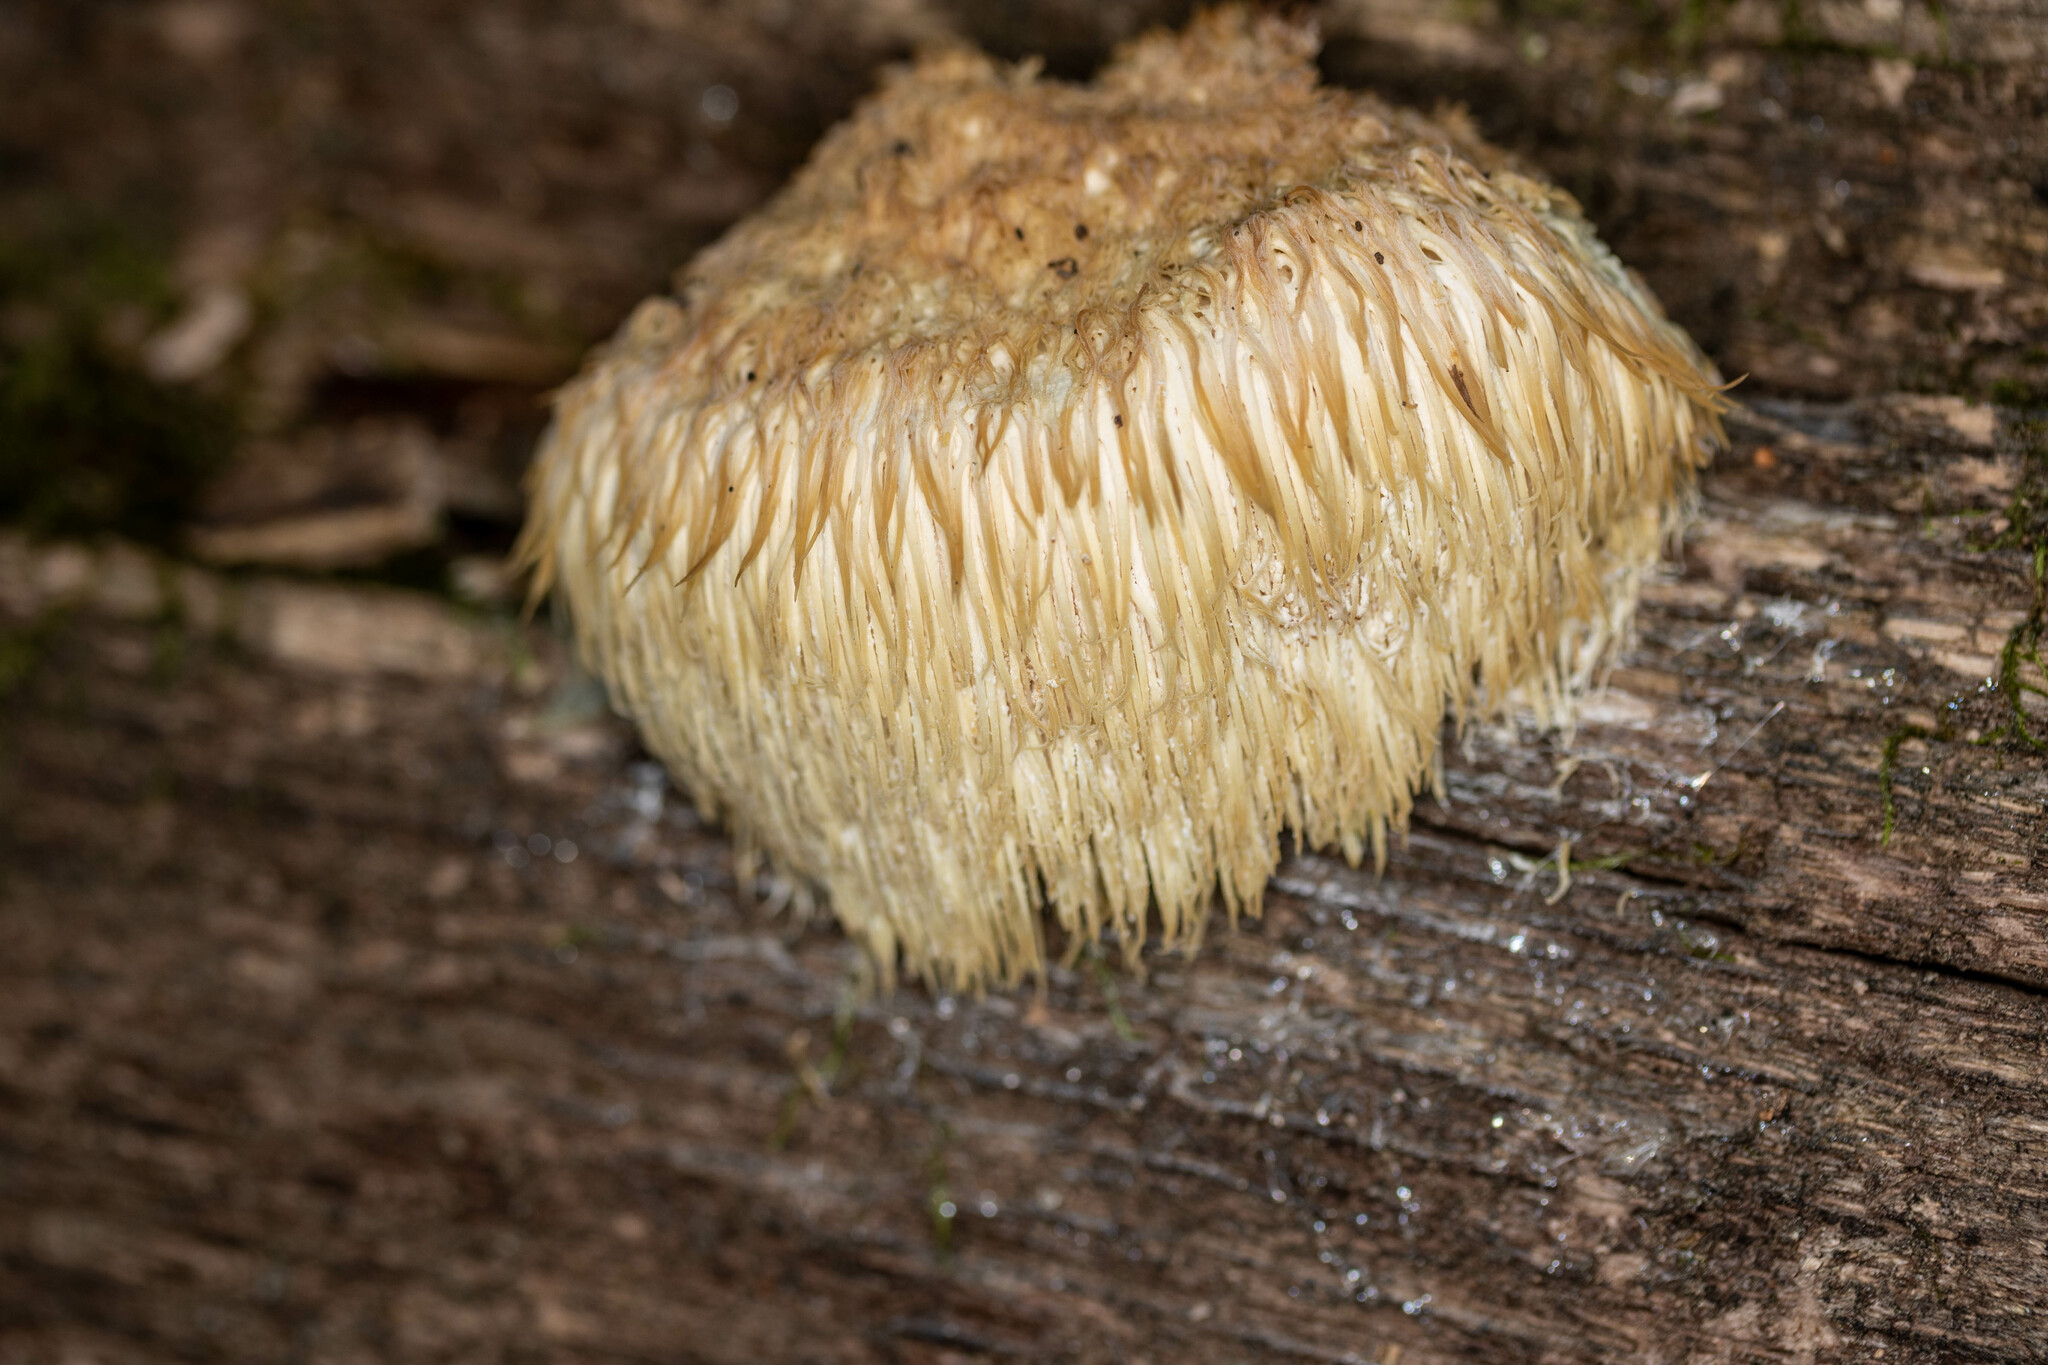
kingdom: Fungi
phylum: Basidiomycota
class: Agaricomycetes
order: Russulales
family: Hericiaceae
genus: Hericium
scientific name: Hericium erinaceus
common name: Bearded tooth
